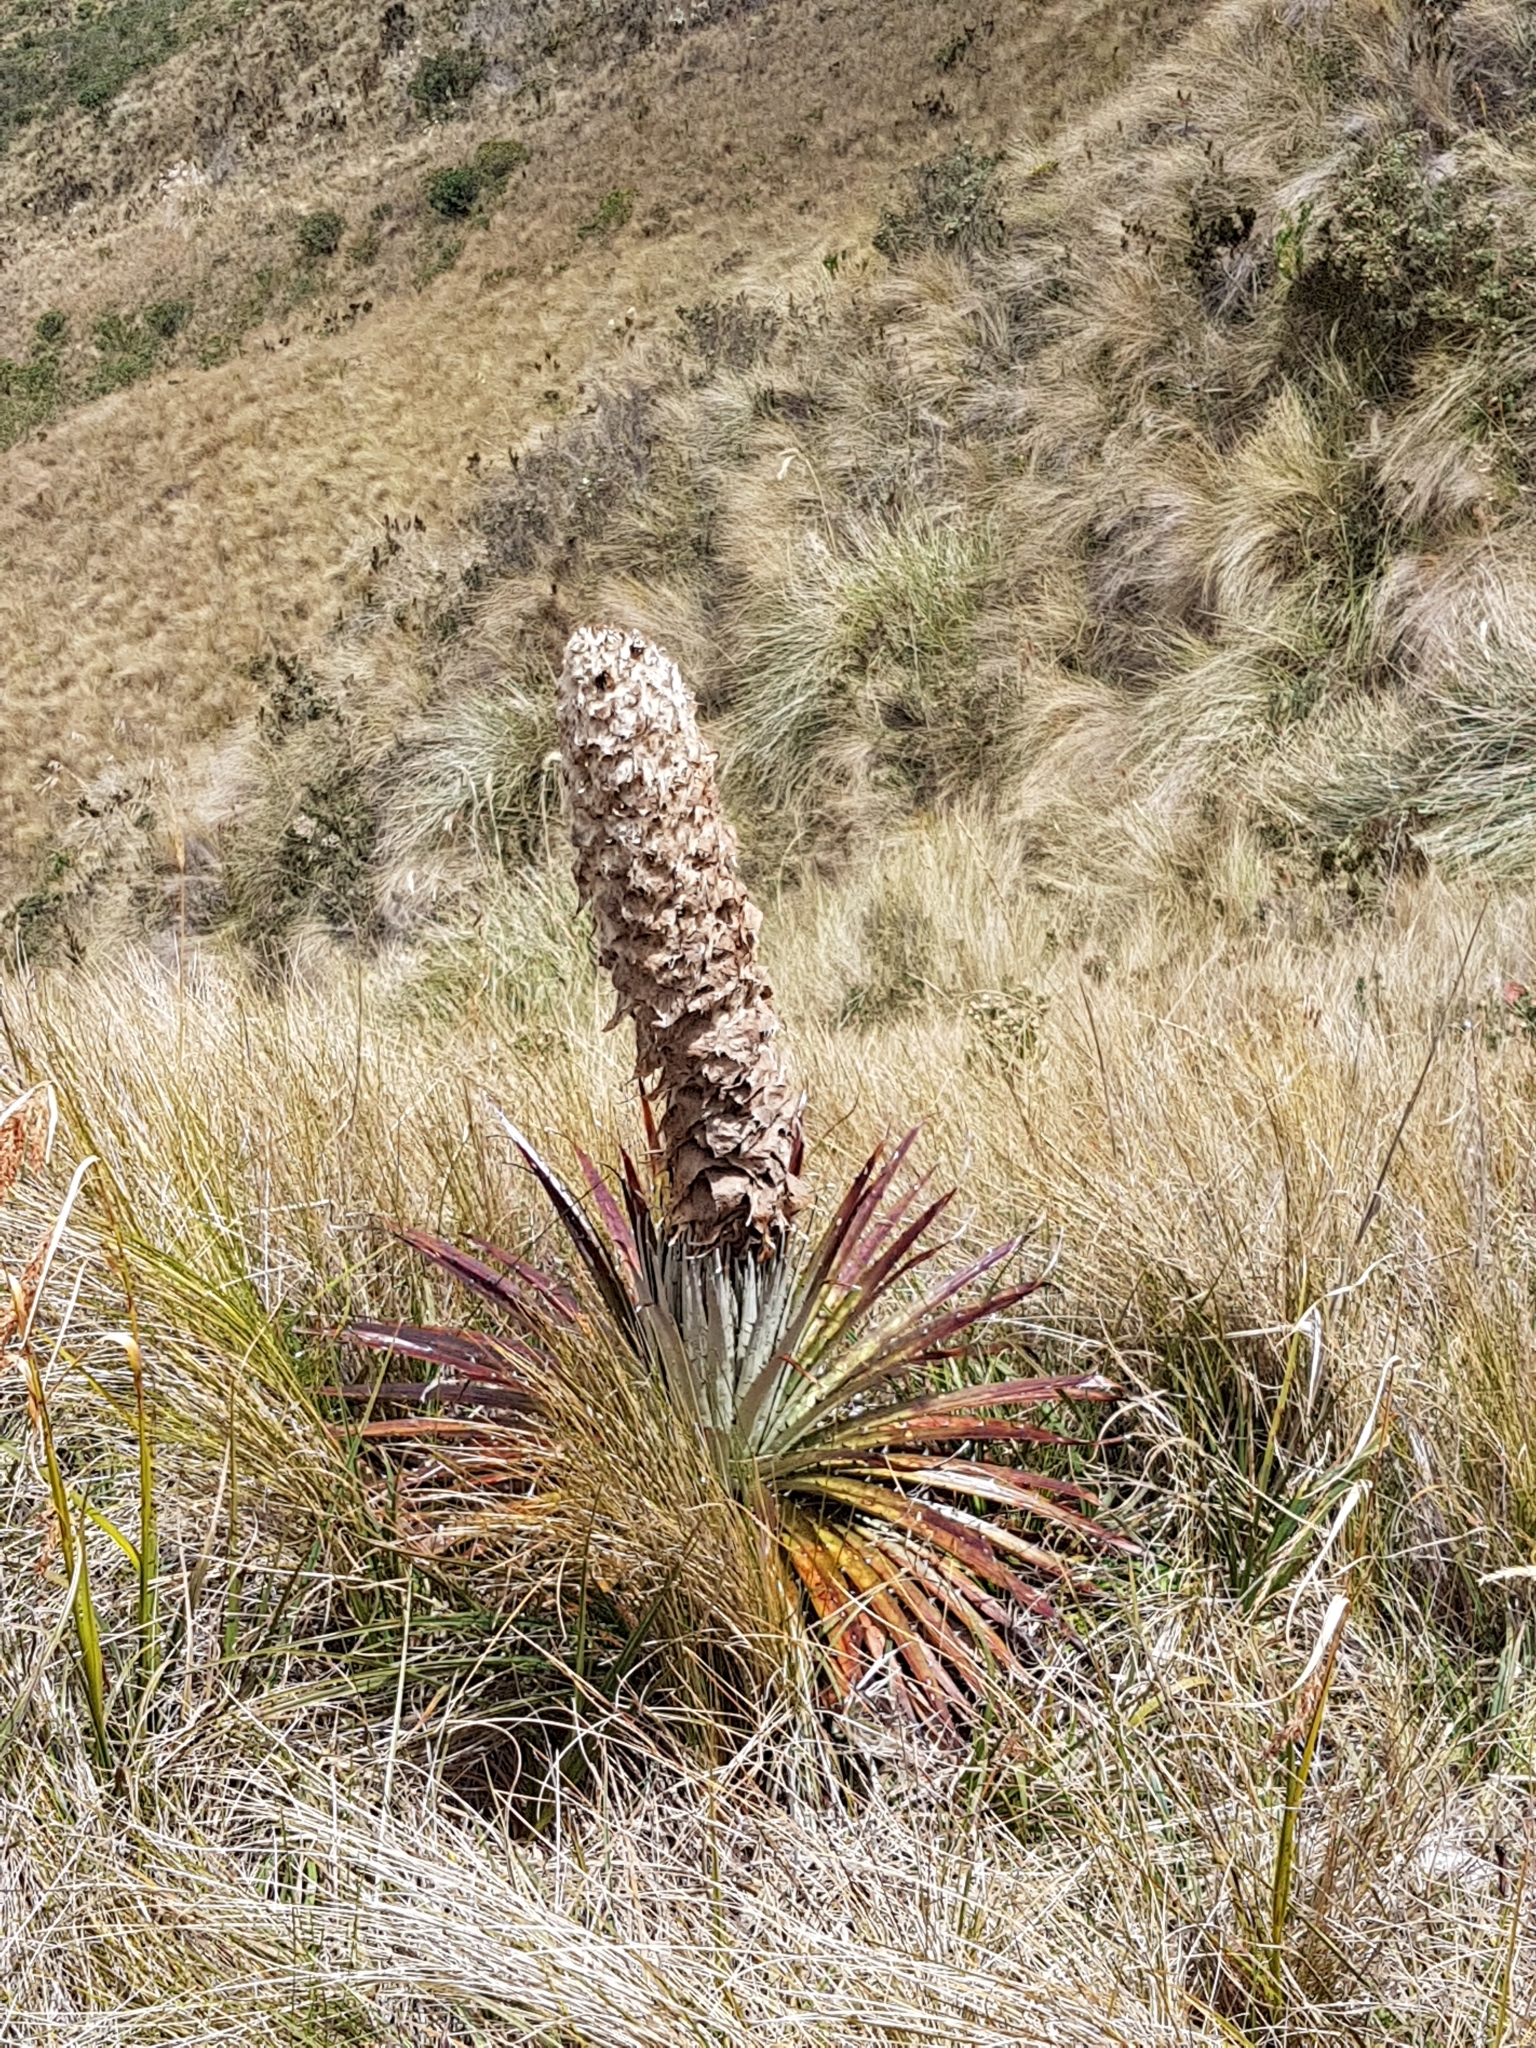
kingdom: Plantae
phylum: Tracheophyta
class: Liliopsida
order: Poales
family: Bromeliaceae
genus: Puya
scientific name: Puya clava-herculis
